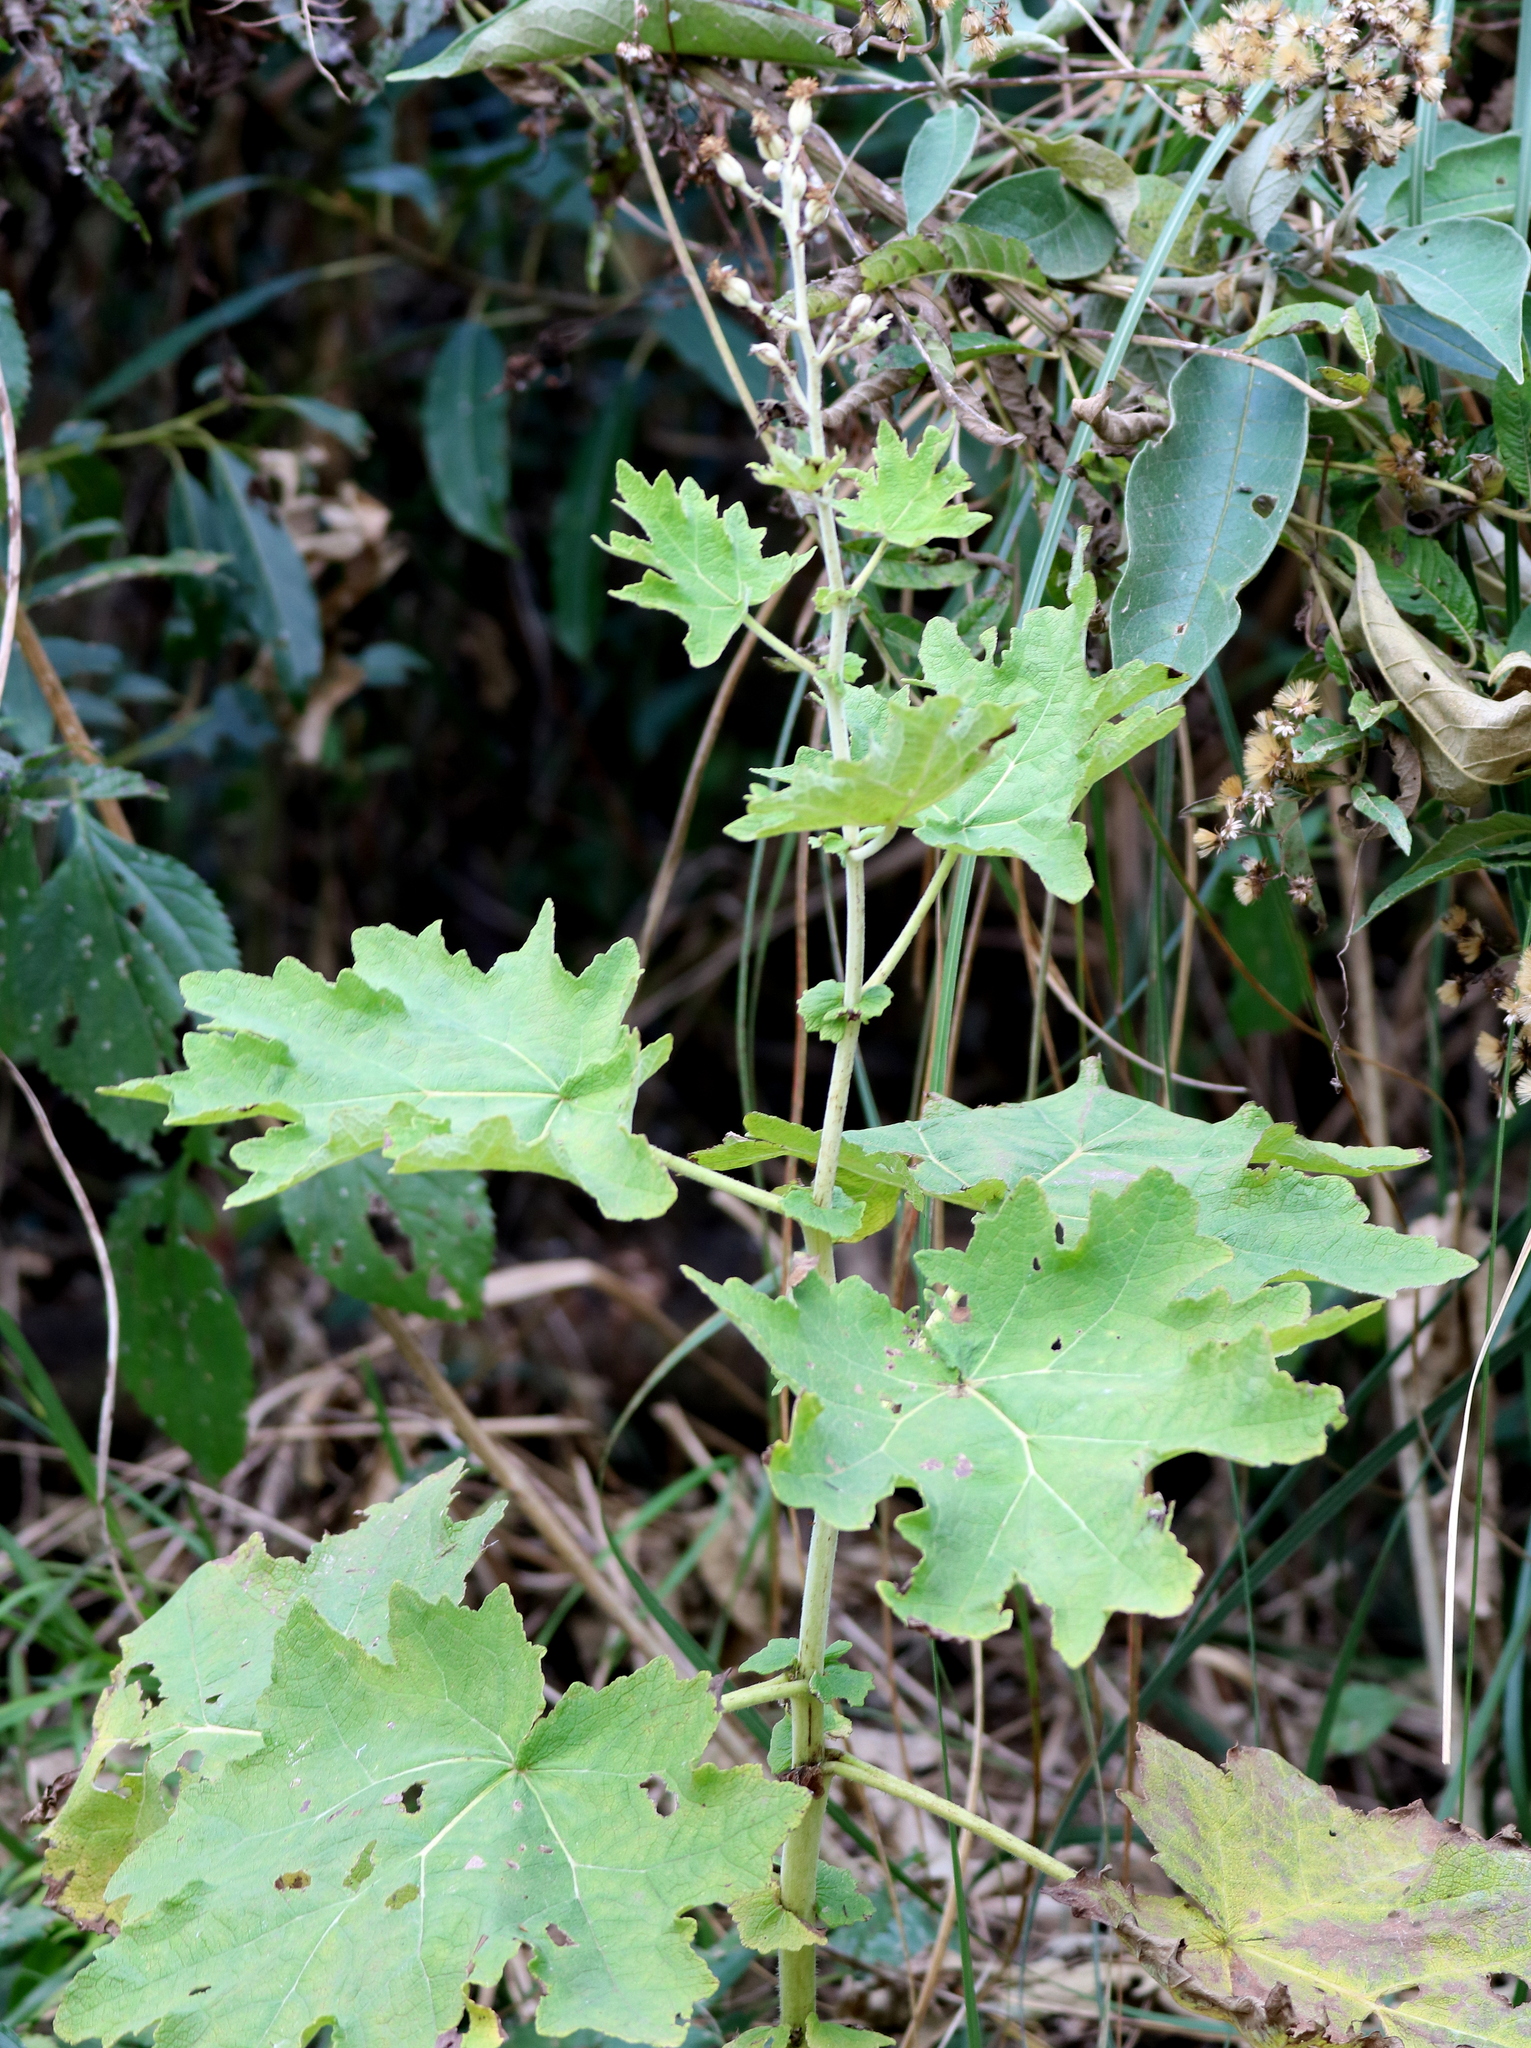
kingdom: Plantae
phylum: Tracheophyta
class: Magnoliopsida
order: Asterales
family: Asteraceae
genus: Jungia
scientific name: Jungia sellowii
